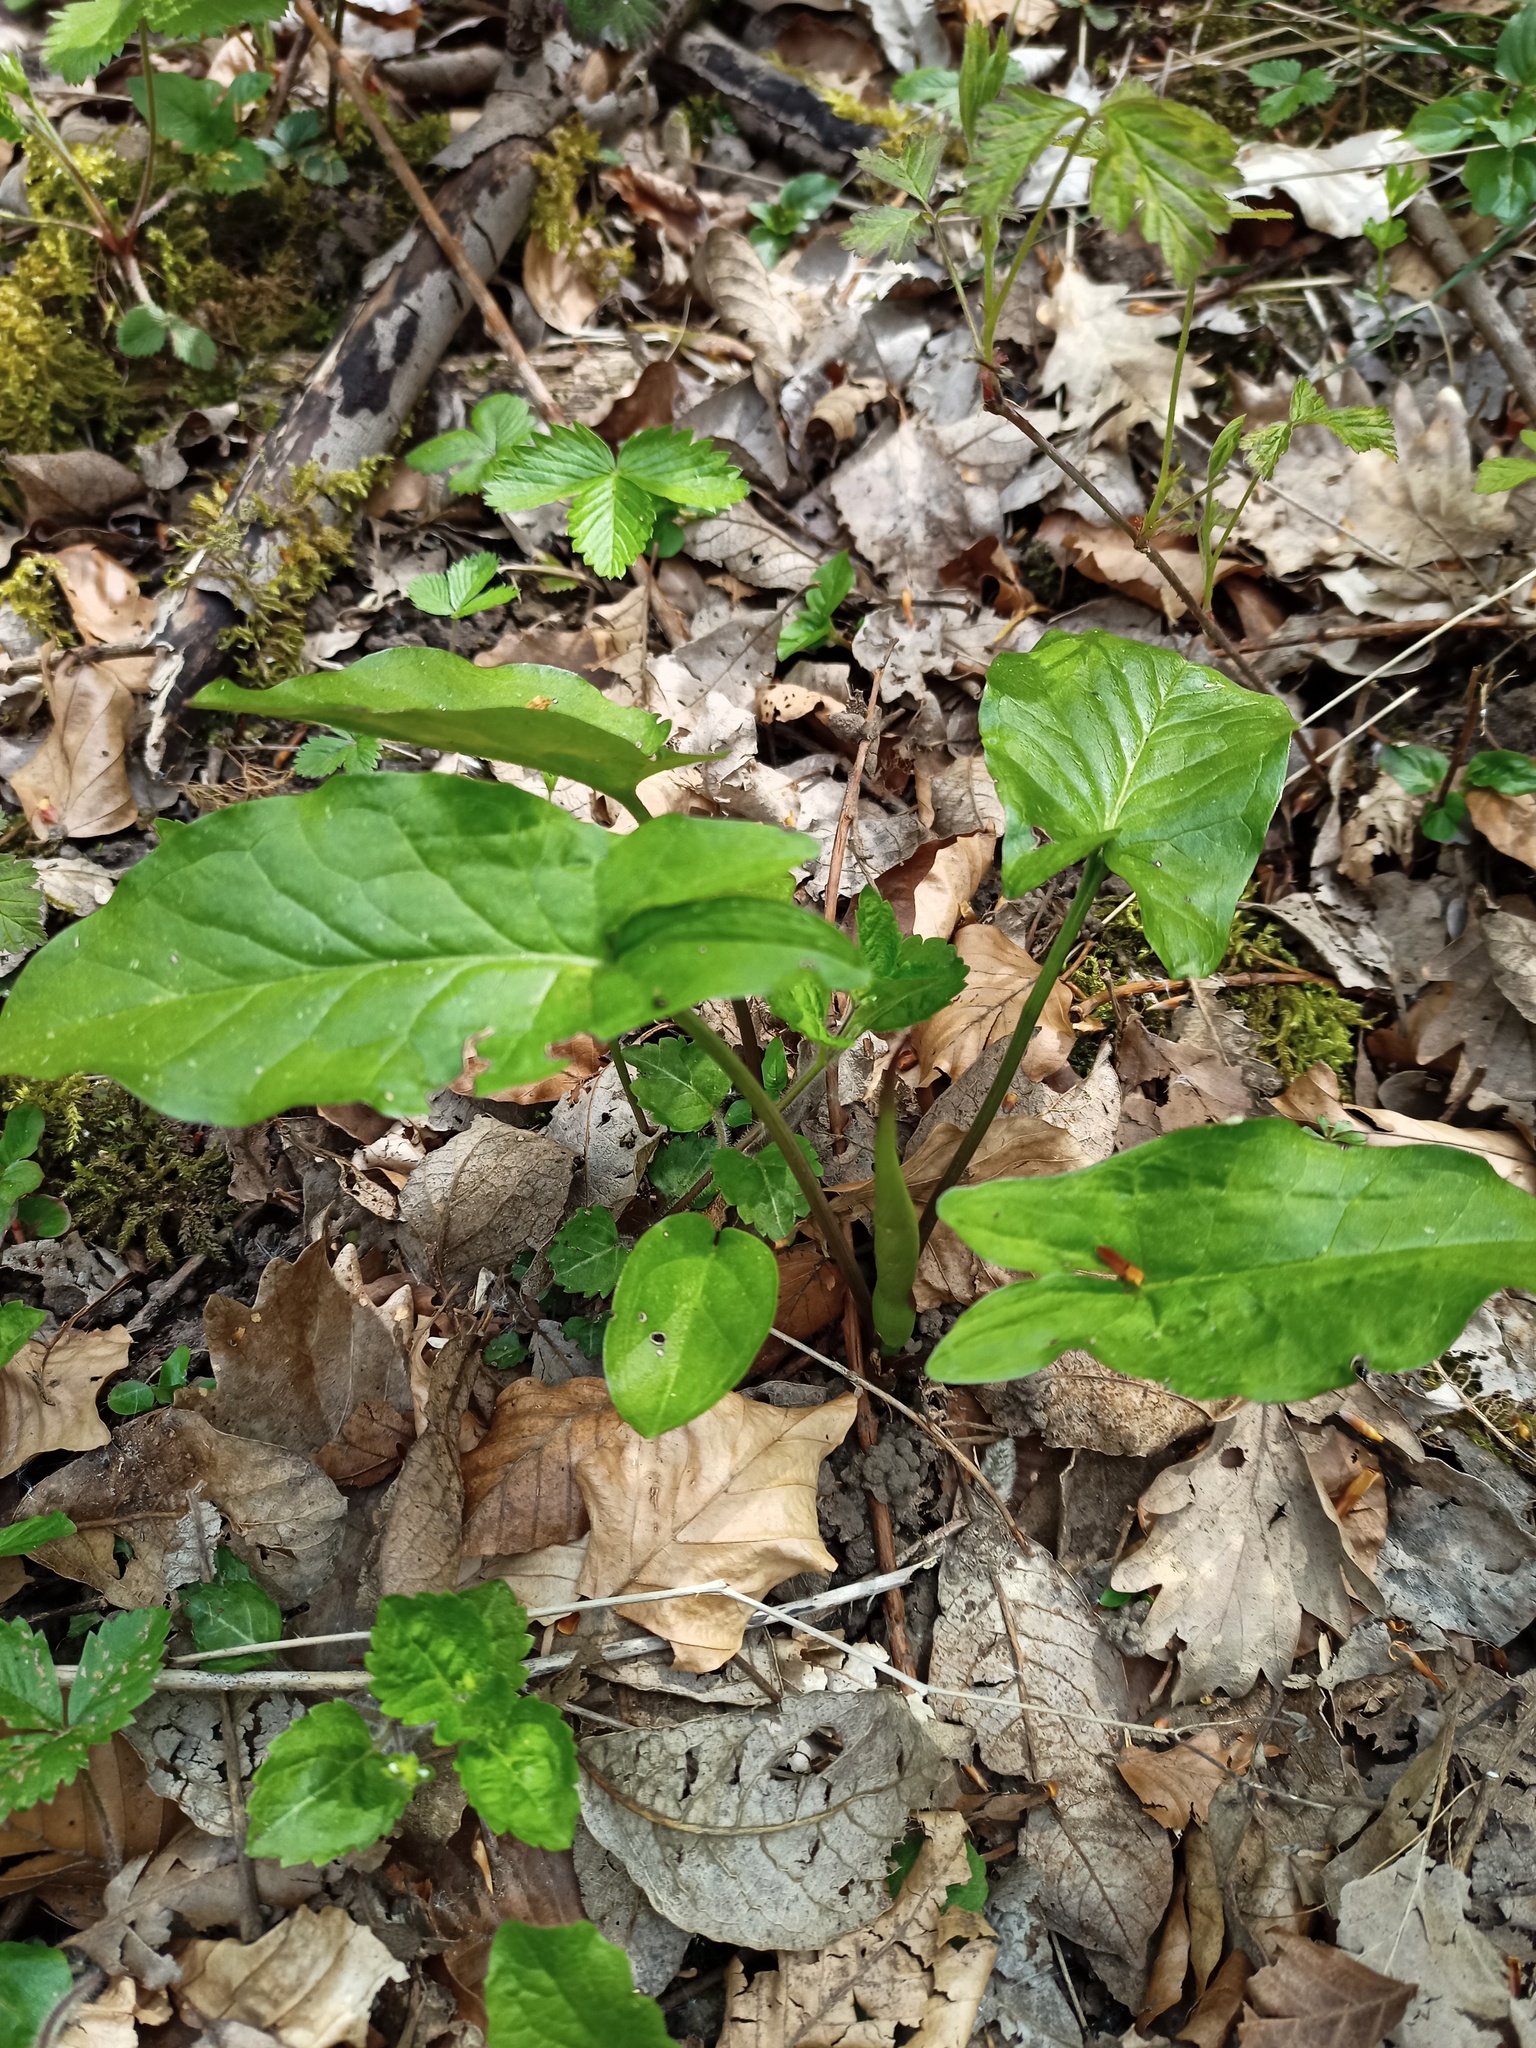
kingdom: Plantae
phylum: Tracheophyta
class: Liliopsida
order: Alismatales
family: Araceae
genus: Arum
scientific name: Arum maculatum
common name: Lords-and-ladies
